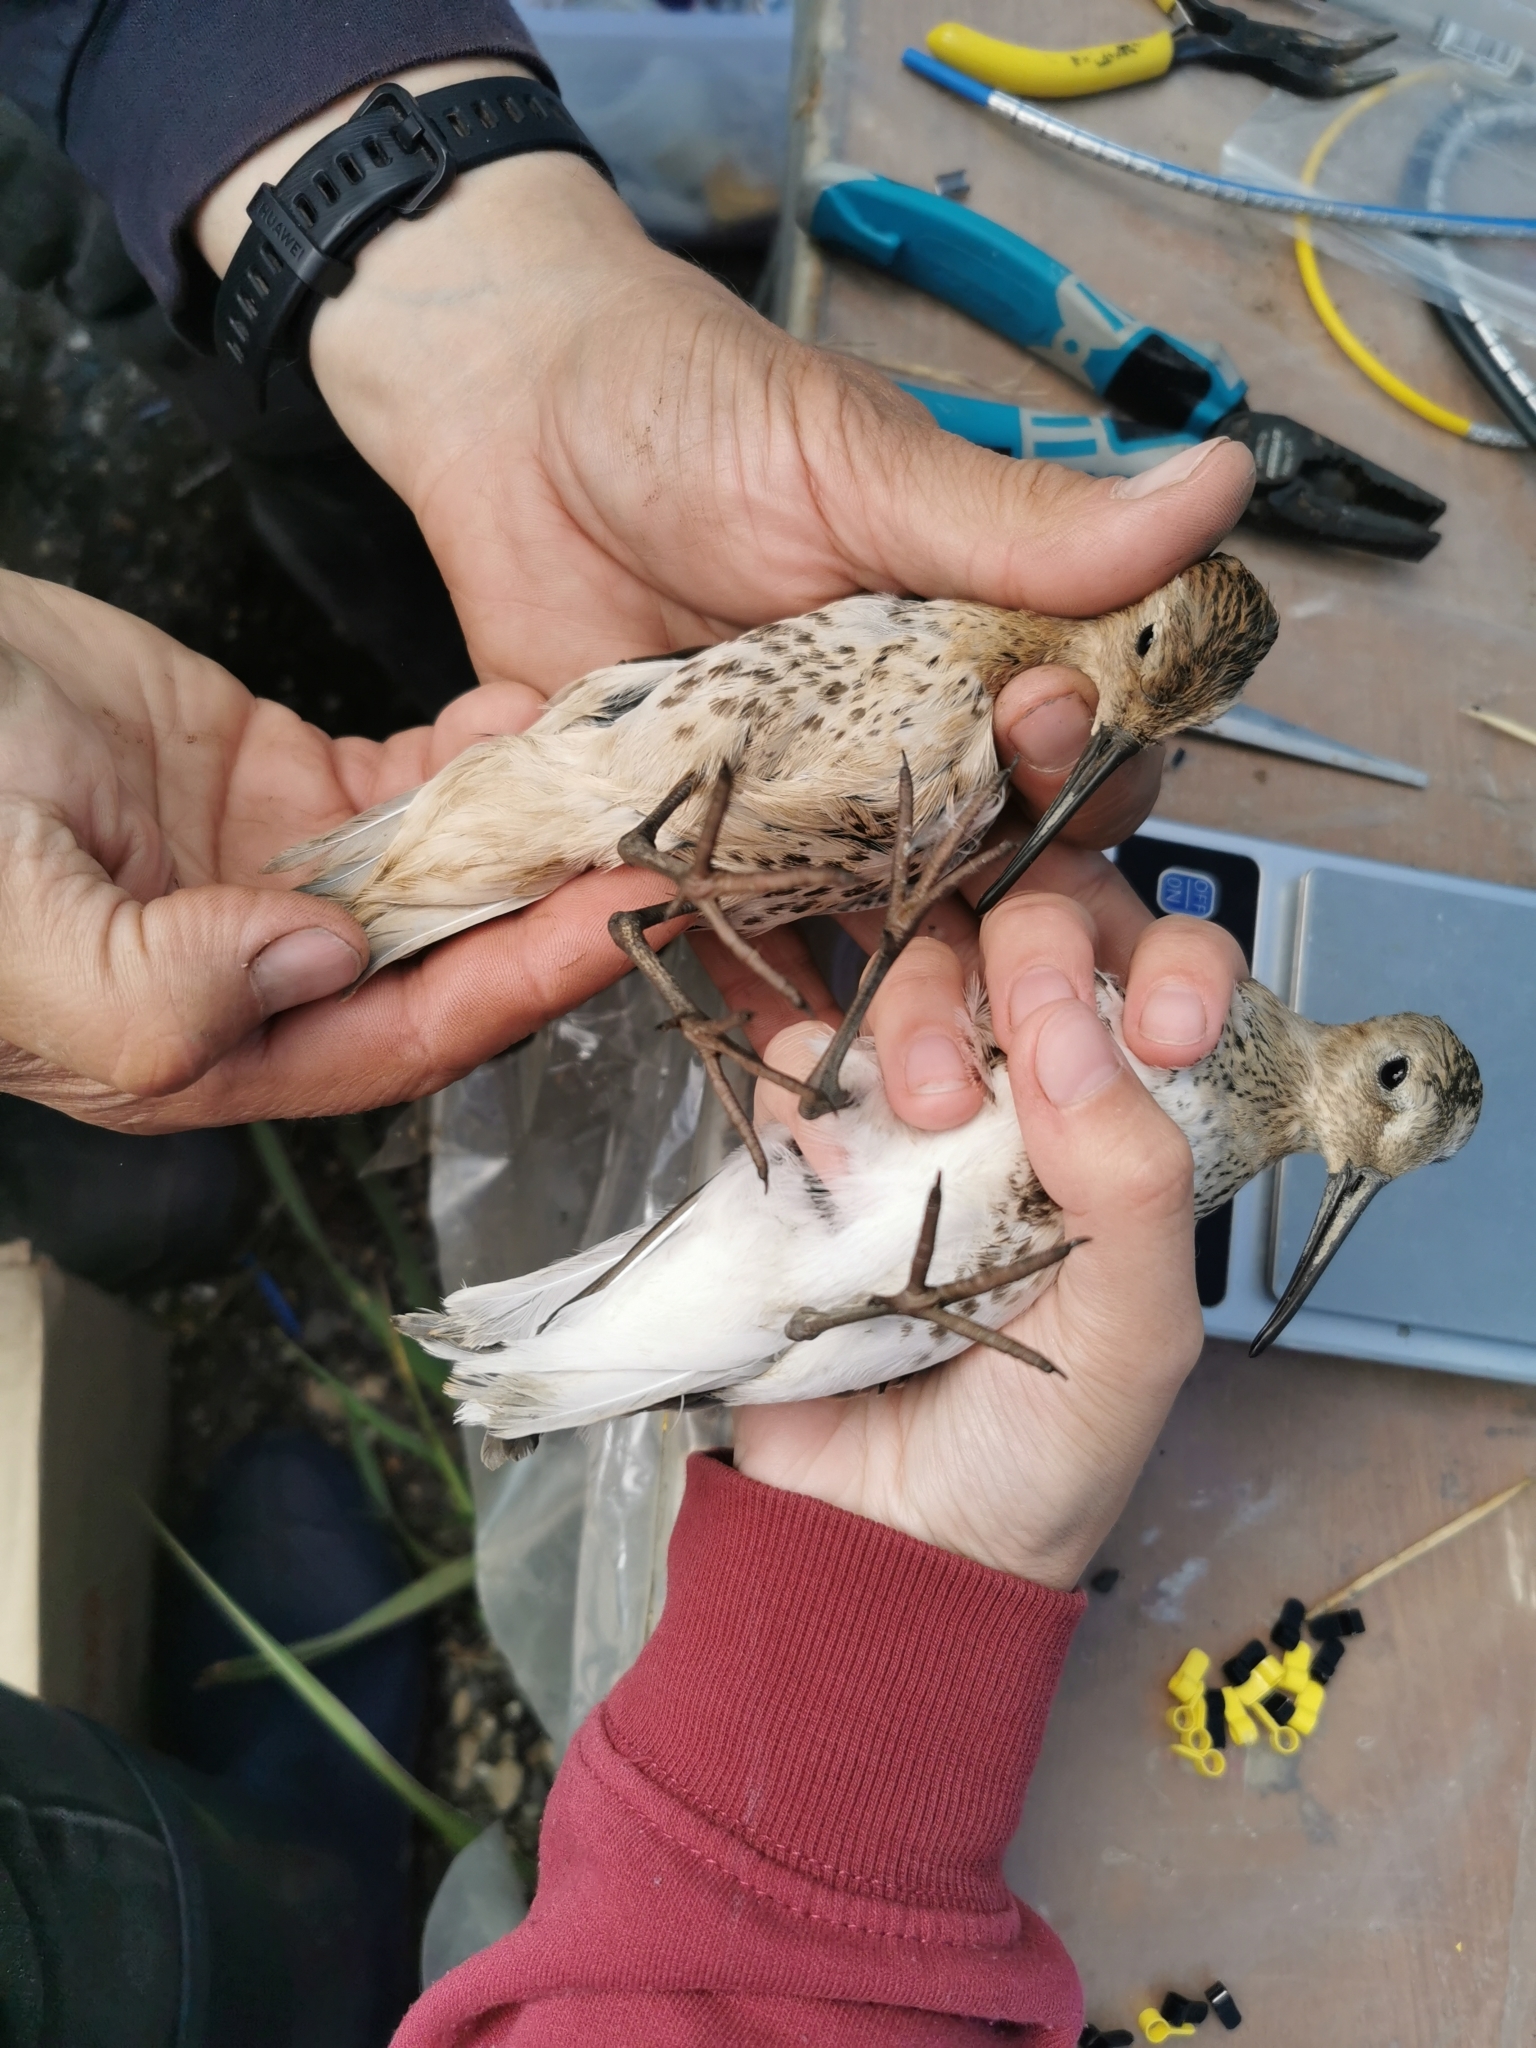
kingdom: Animalia
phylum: Chordata
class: Aves
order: Charadriiformes
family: Scolopacidae
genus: Calidris
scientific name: Calidris alpina
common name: Dunlin
